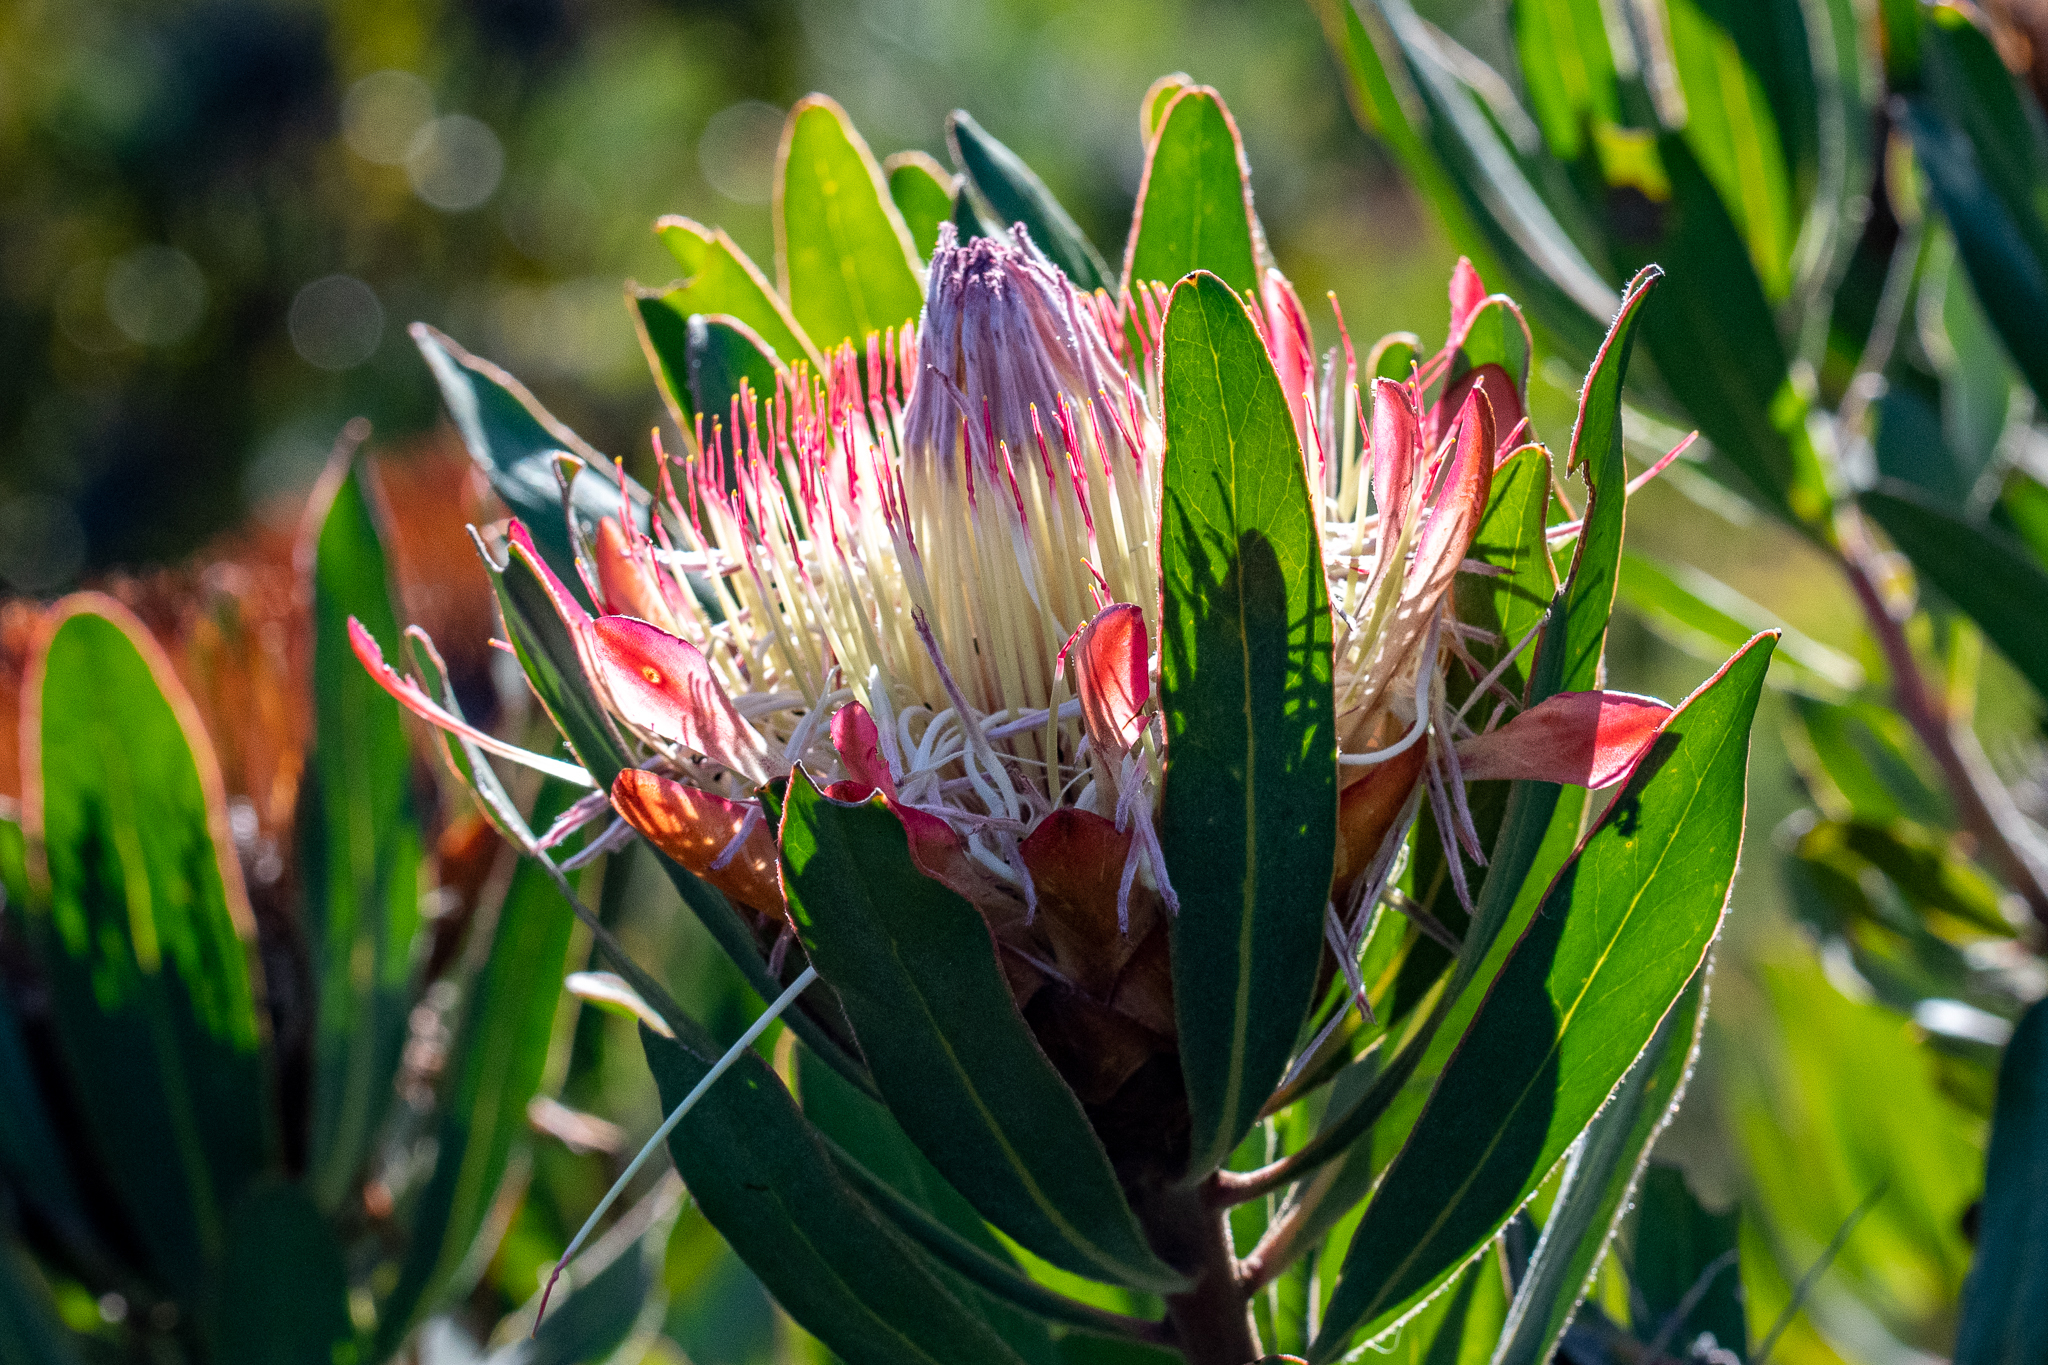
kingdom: Plantae
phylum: Tracheophyta
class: Magnoliopsida
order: Proteales
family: Proteaceae
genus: Protea
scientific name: Protea susannae
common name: Foetid-leaf sugarbush
